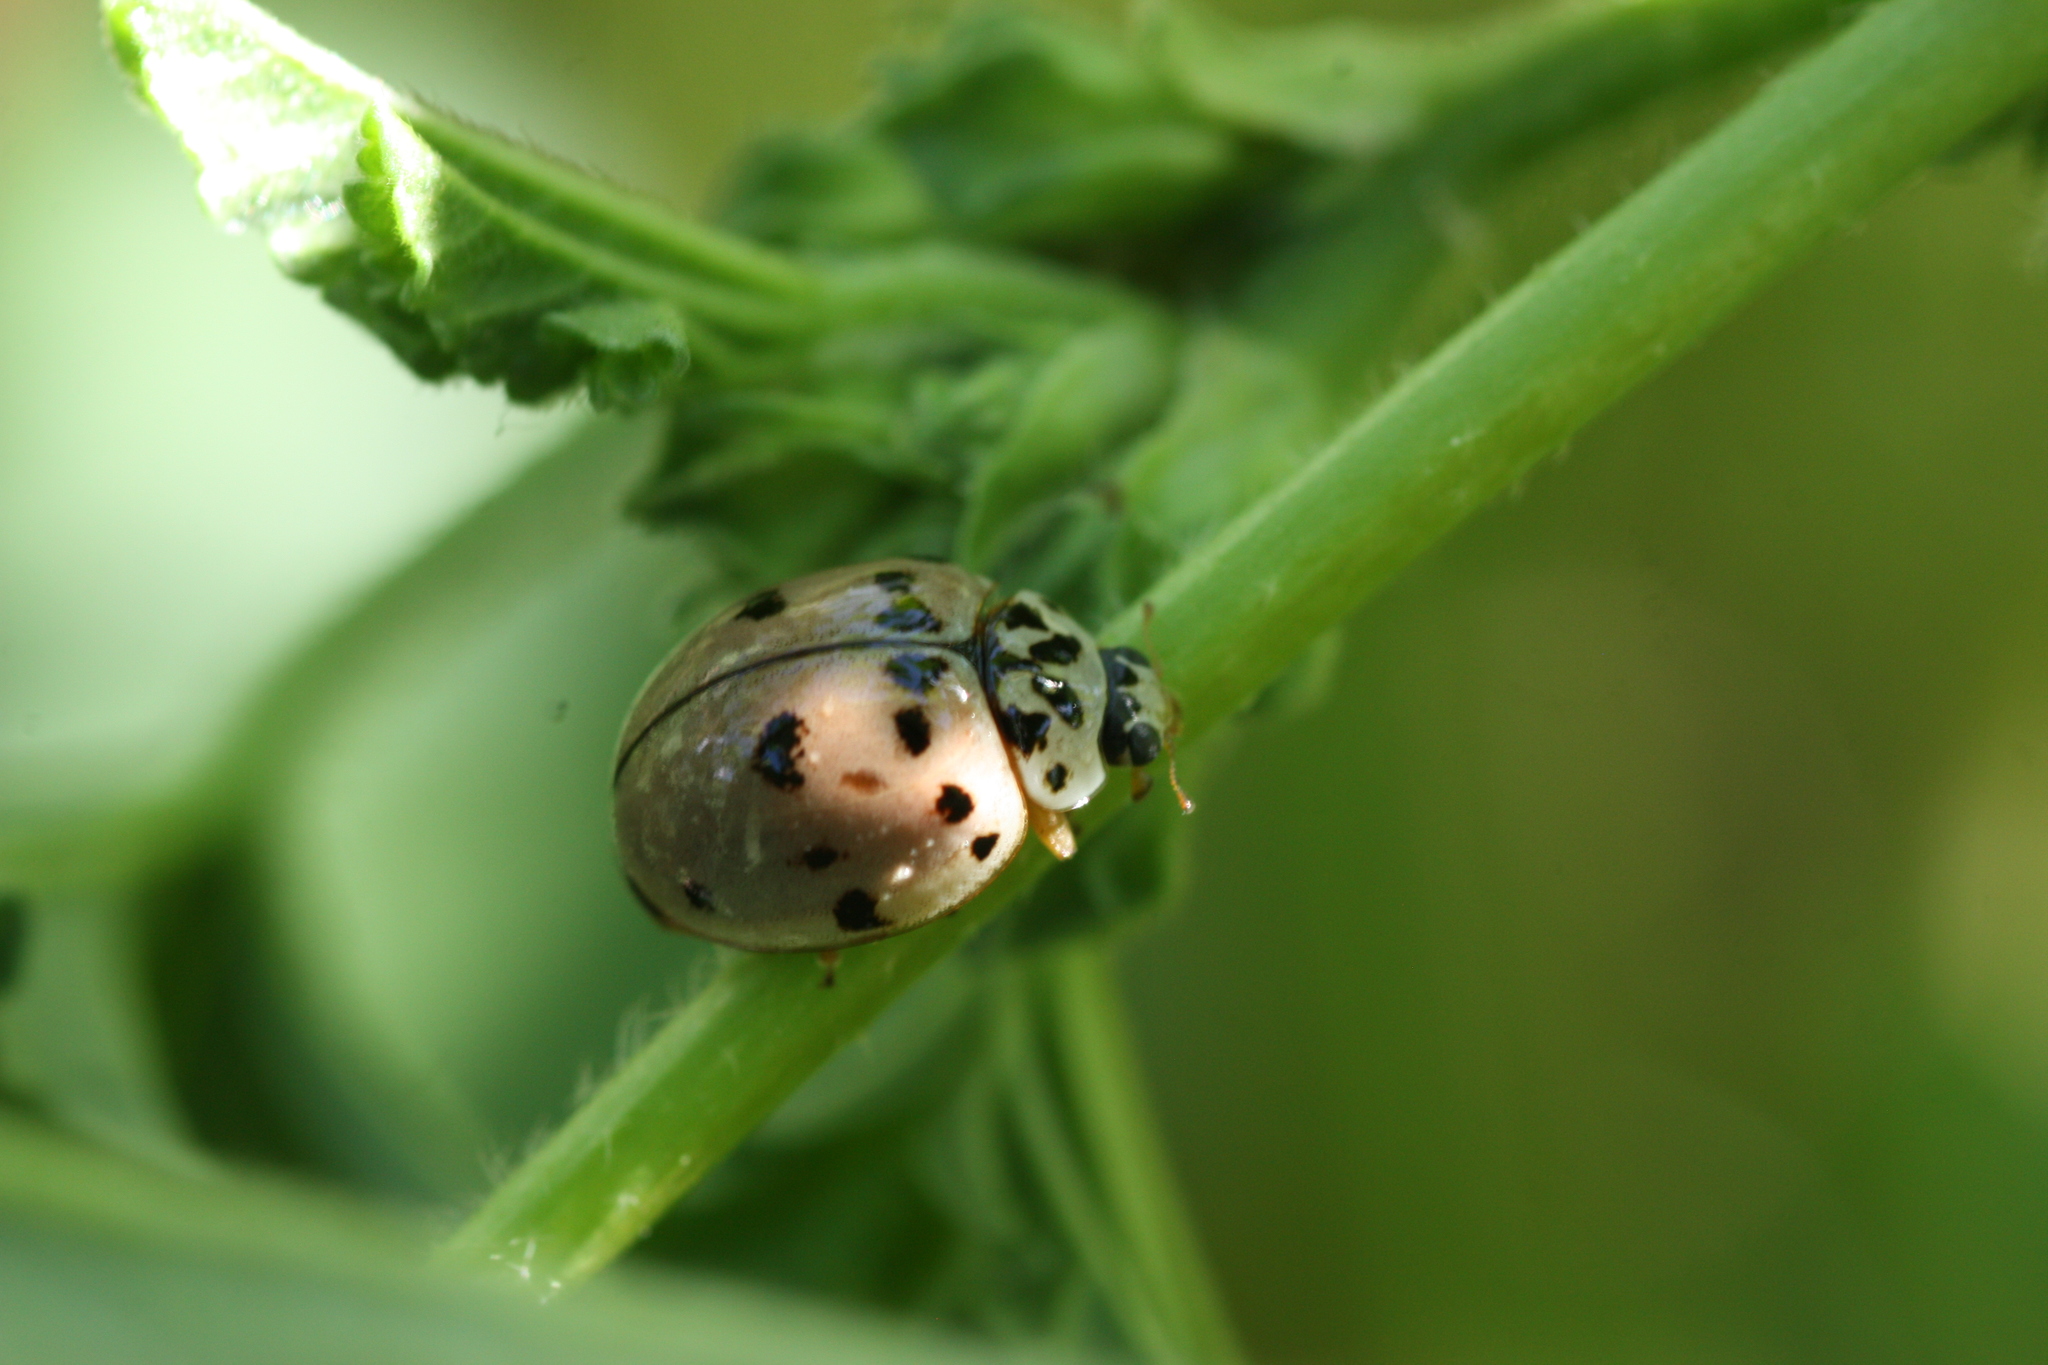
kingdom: Animalia
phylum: Arthropoda
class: Insecta
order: Coleoptera
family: Coccinellidae
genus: Olla
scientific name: Olla v-nigrum
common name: Ashy gray lady beetle
